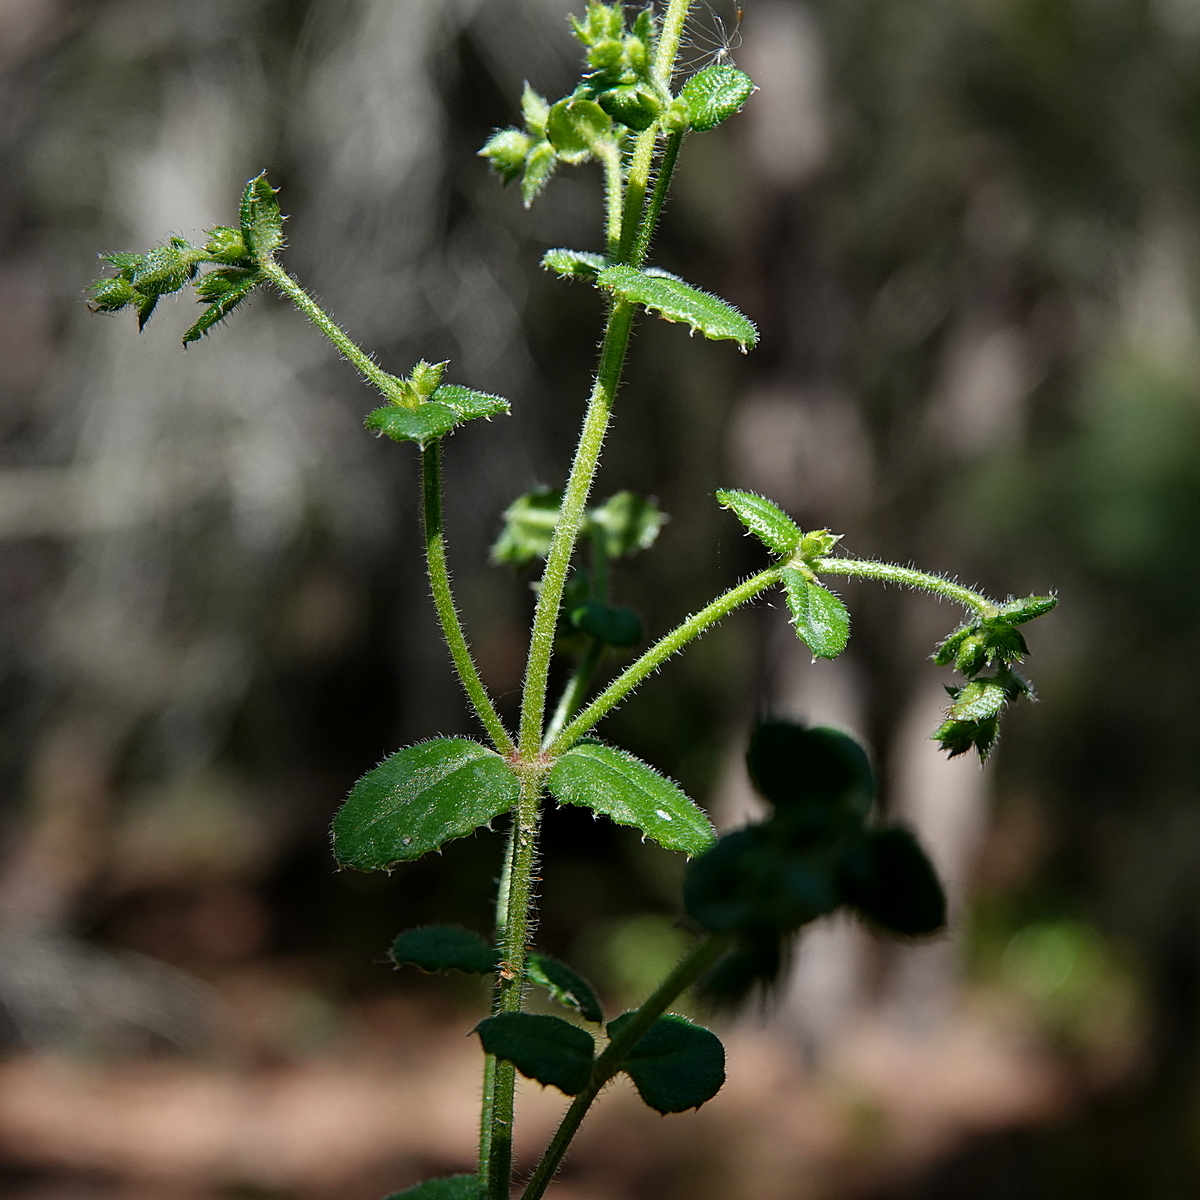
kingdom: Plantae
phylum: Tracheophyta
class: Magnoliopsida
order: Saxifragales
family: Haloragaceae
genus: Gonocarpus
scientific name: Gonocarpus teucrioides
